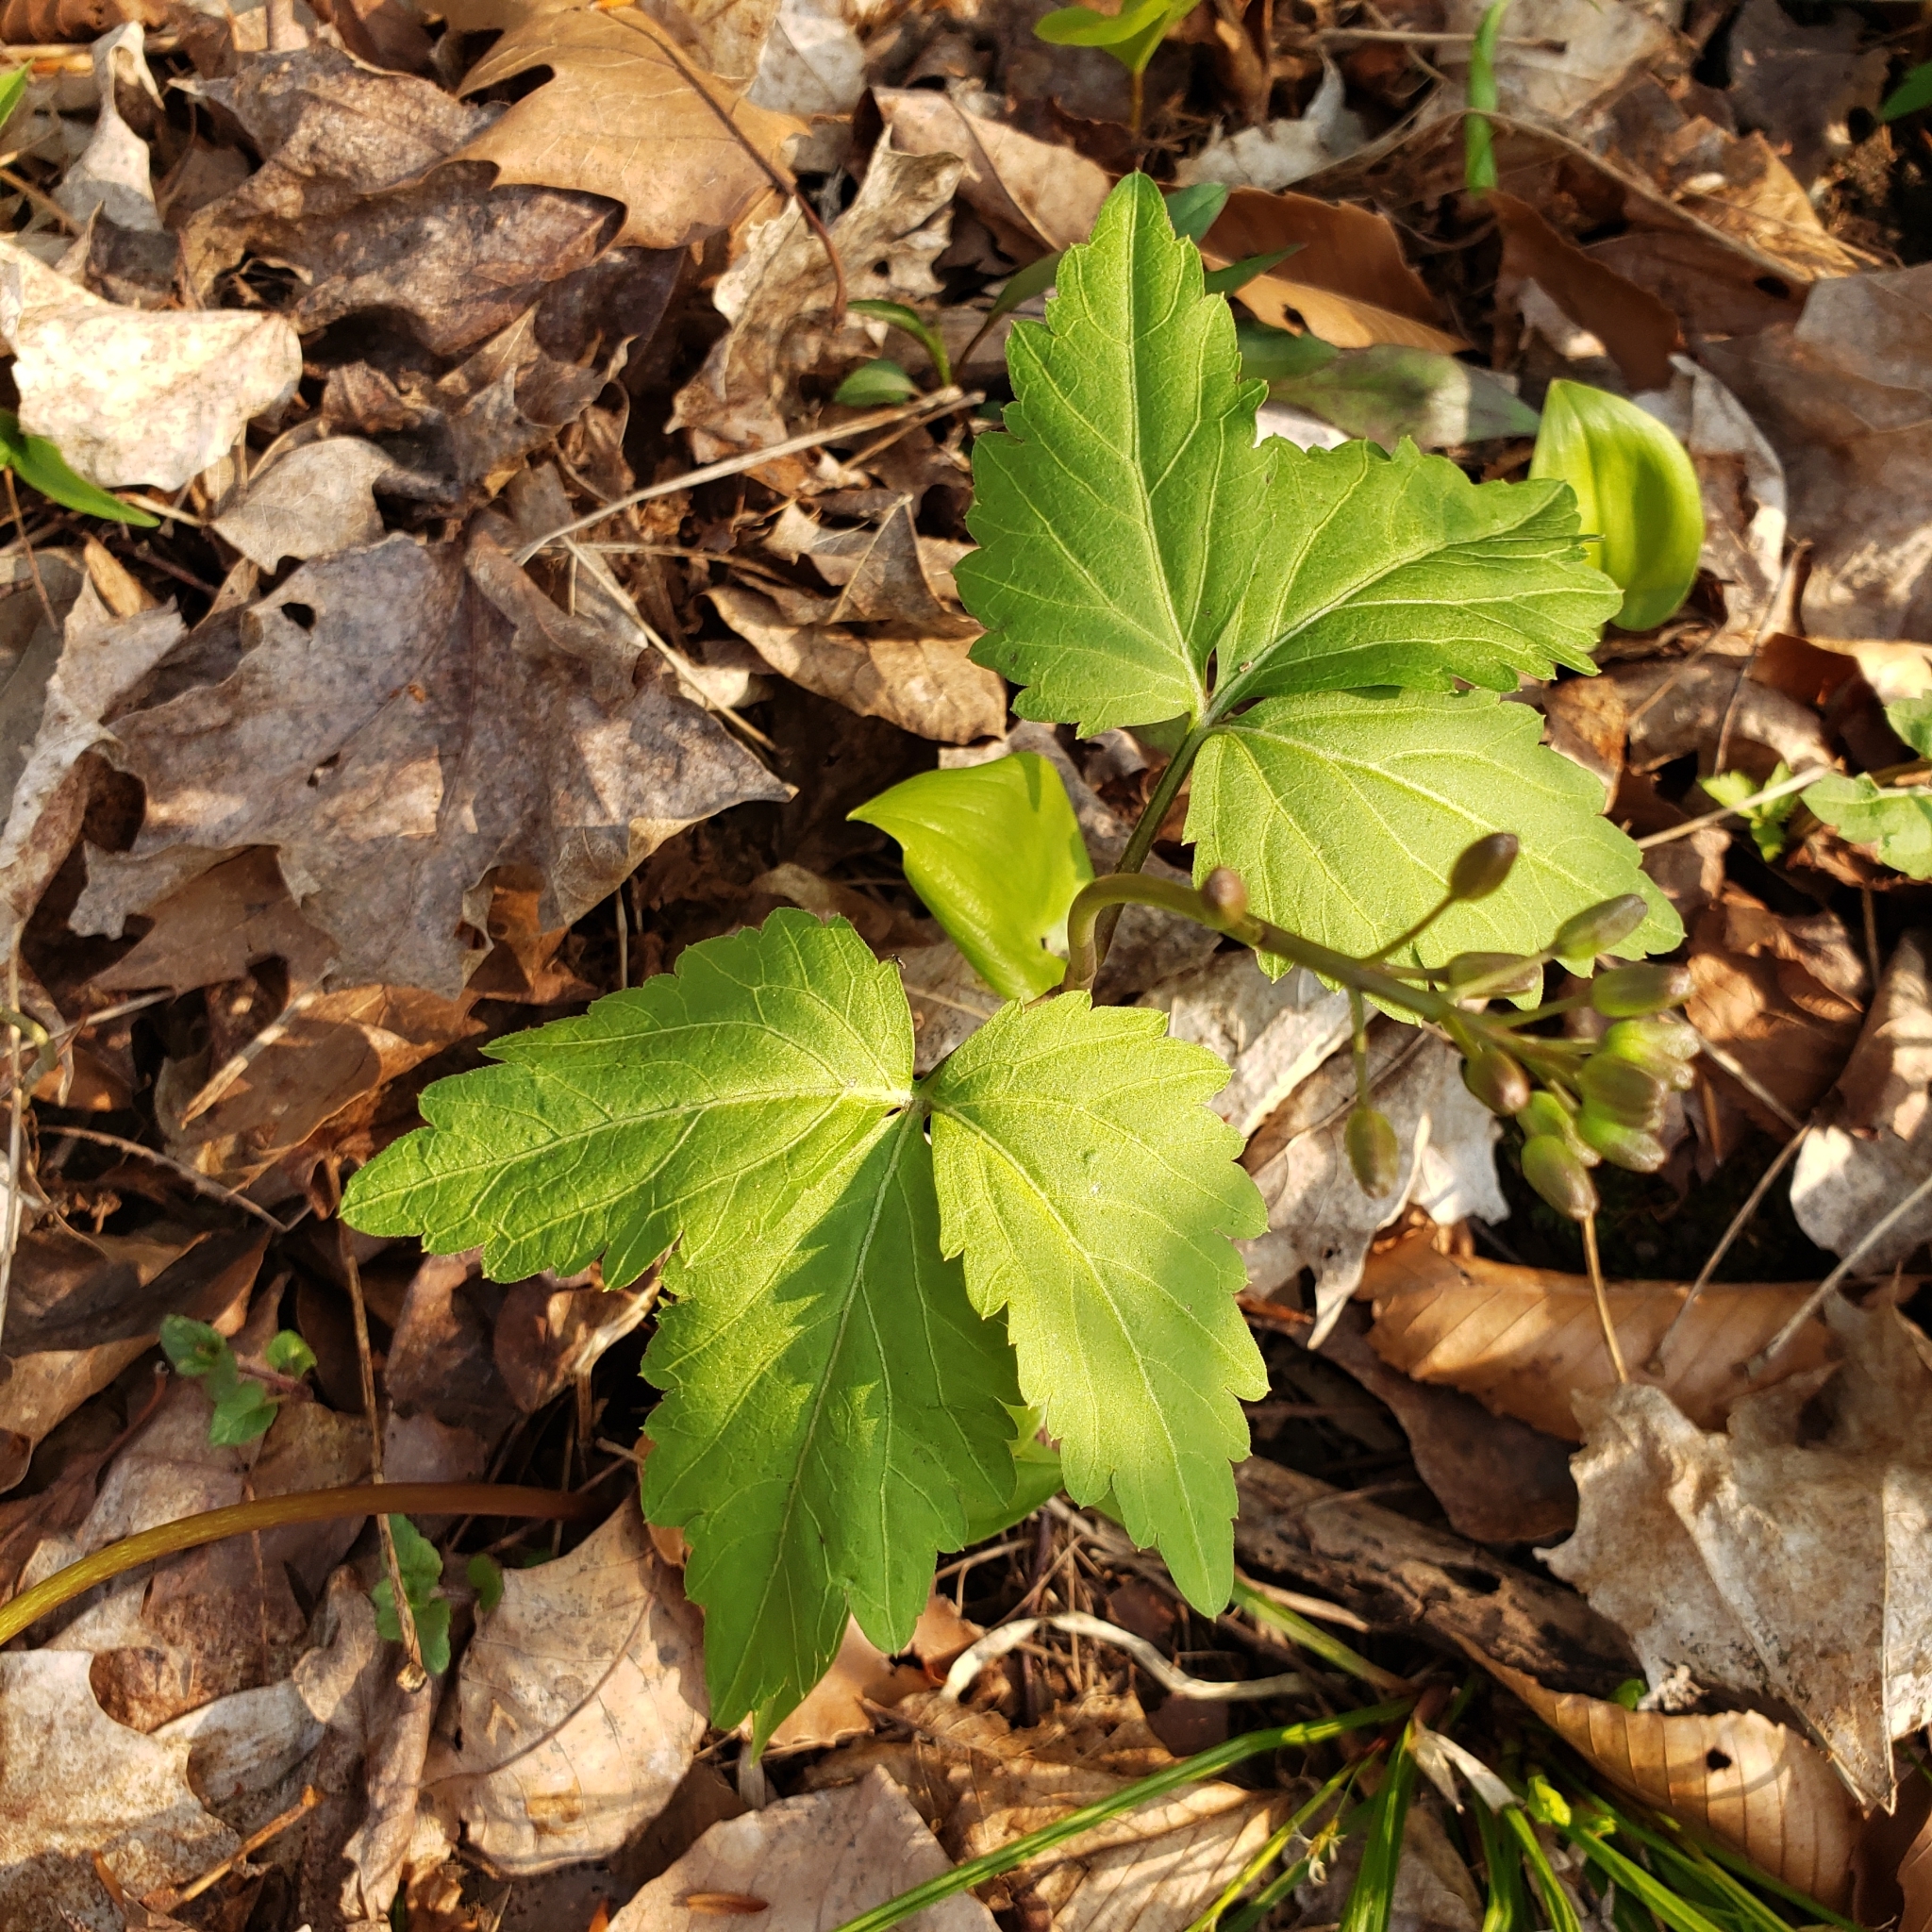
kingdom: Plantae
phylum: Tracheophyta
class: Magnoliopsida
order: Brassicales
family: Brassicaceae
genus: Cardamine
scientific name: Cardamine diphylla
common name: Broad-leaved toothwort
